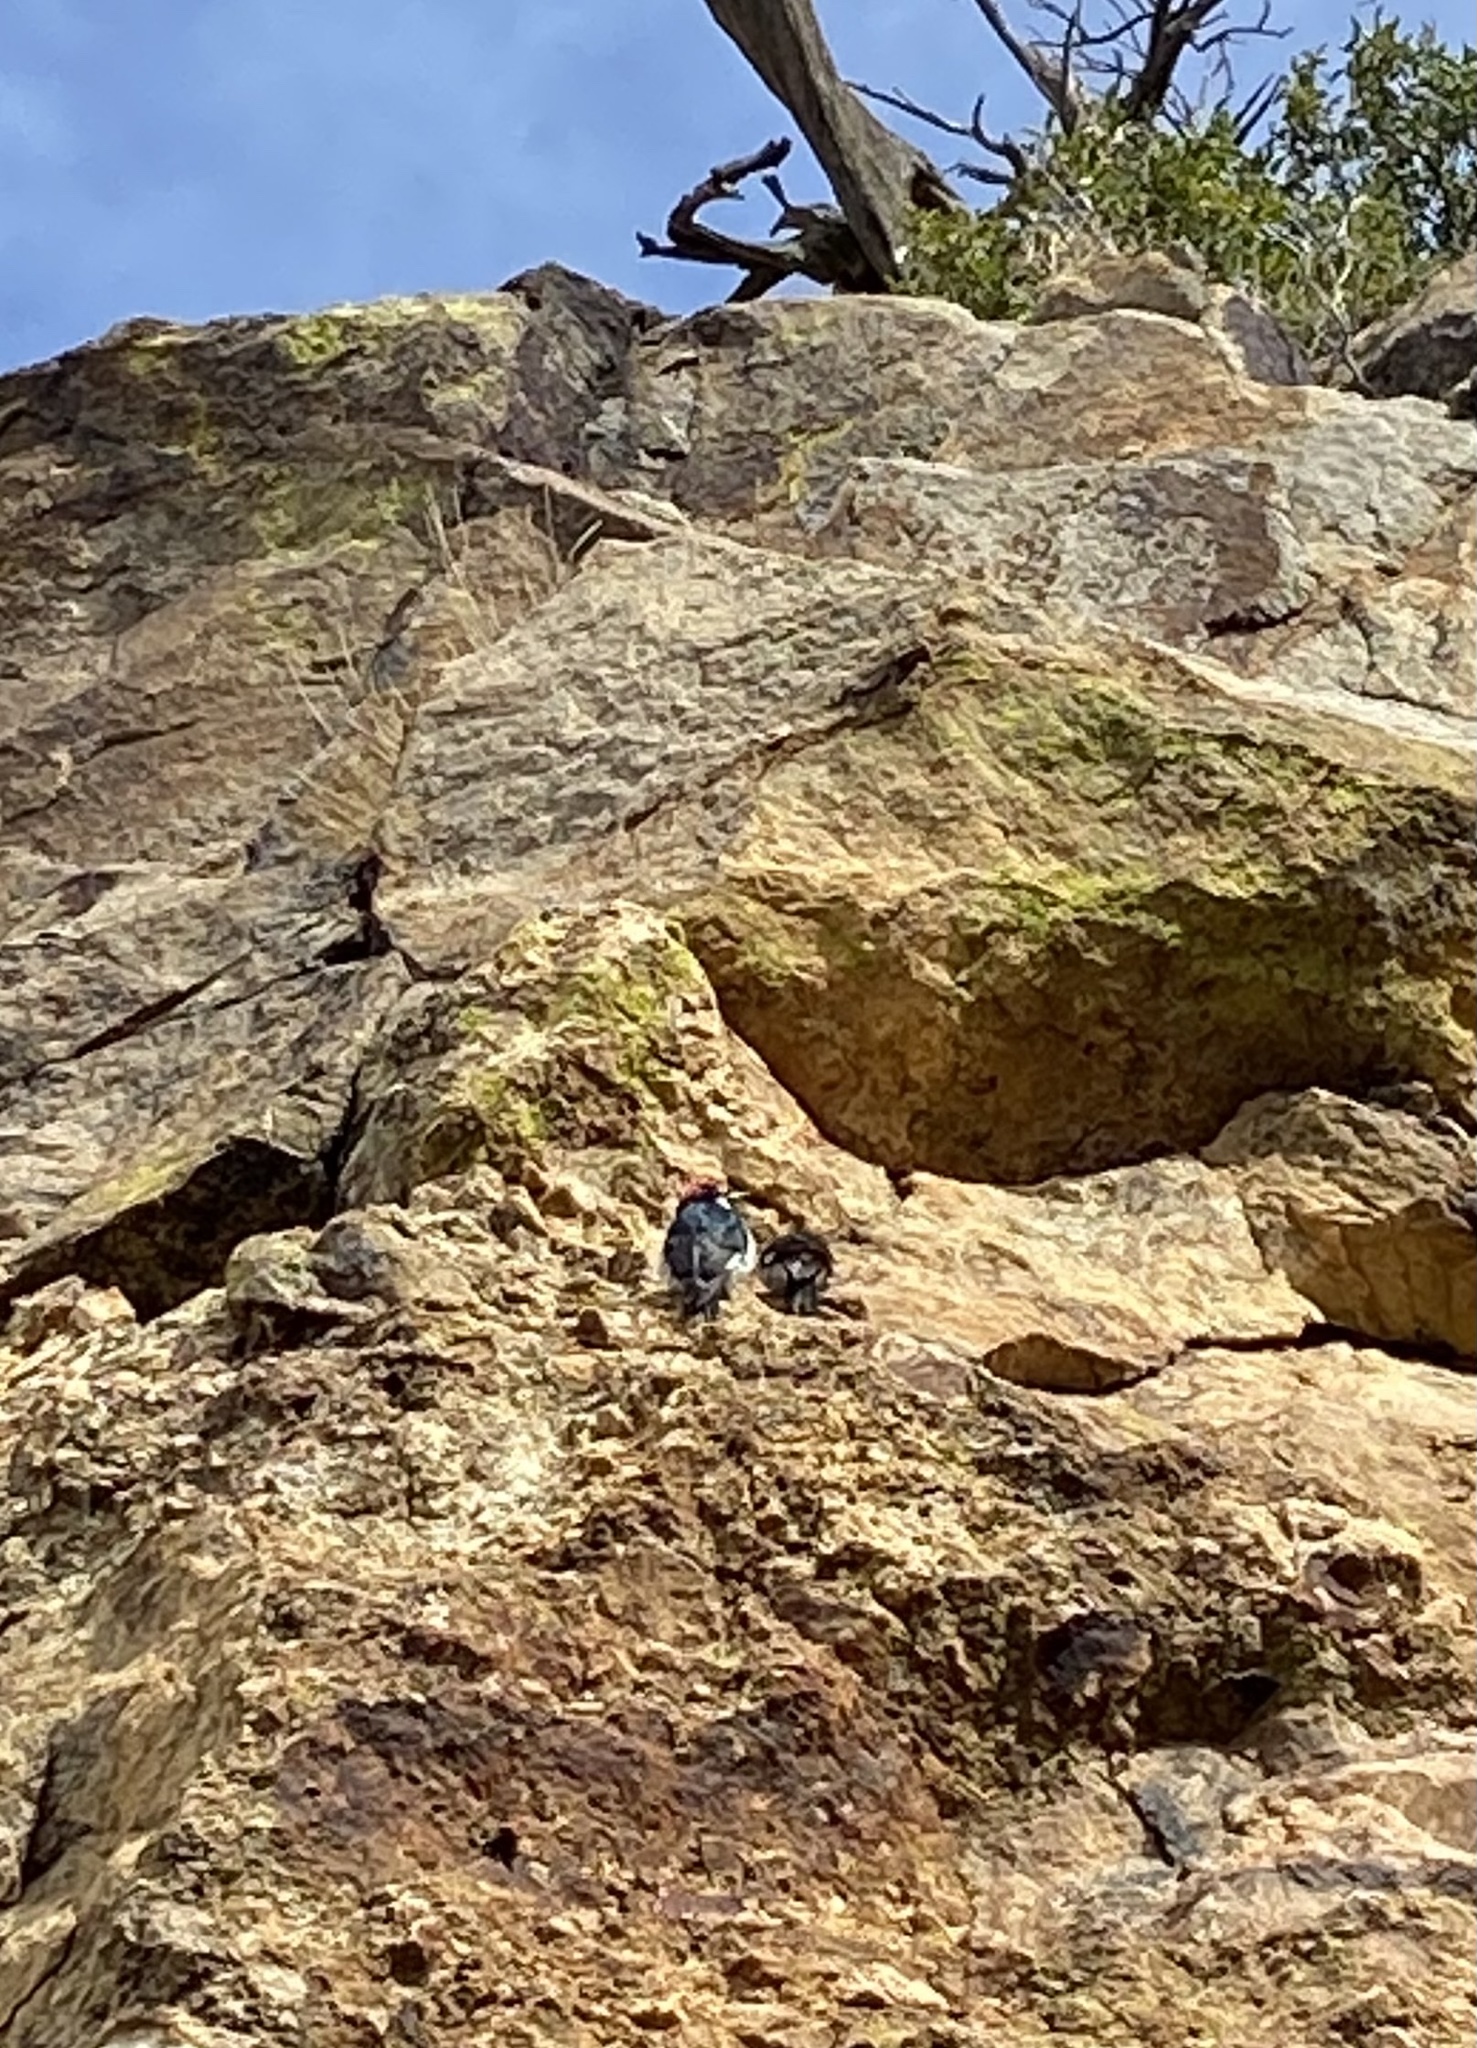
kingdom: Animalia
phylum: Chordata
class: Aves
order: Piciformes
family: Picidae
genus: Melanerpes
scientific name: Melanerpes formicivorus
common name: Acorn woodpecker
